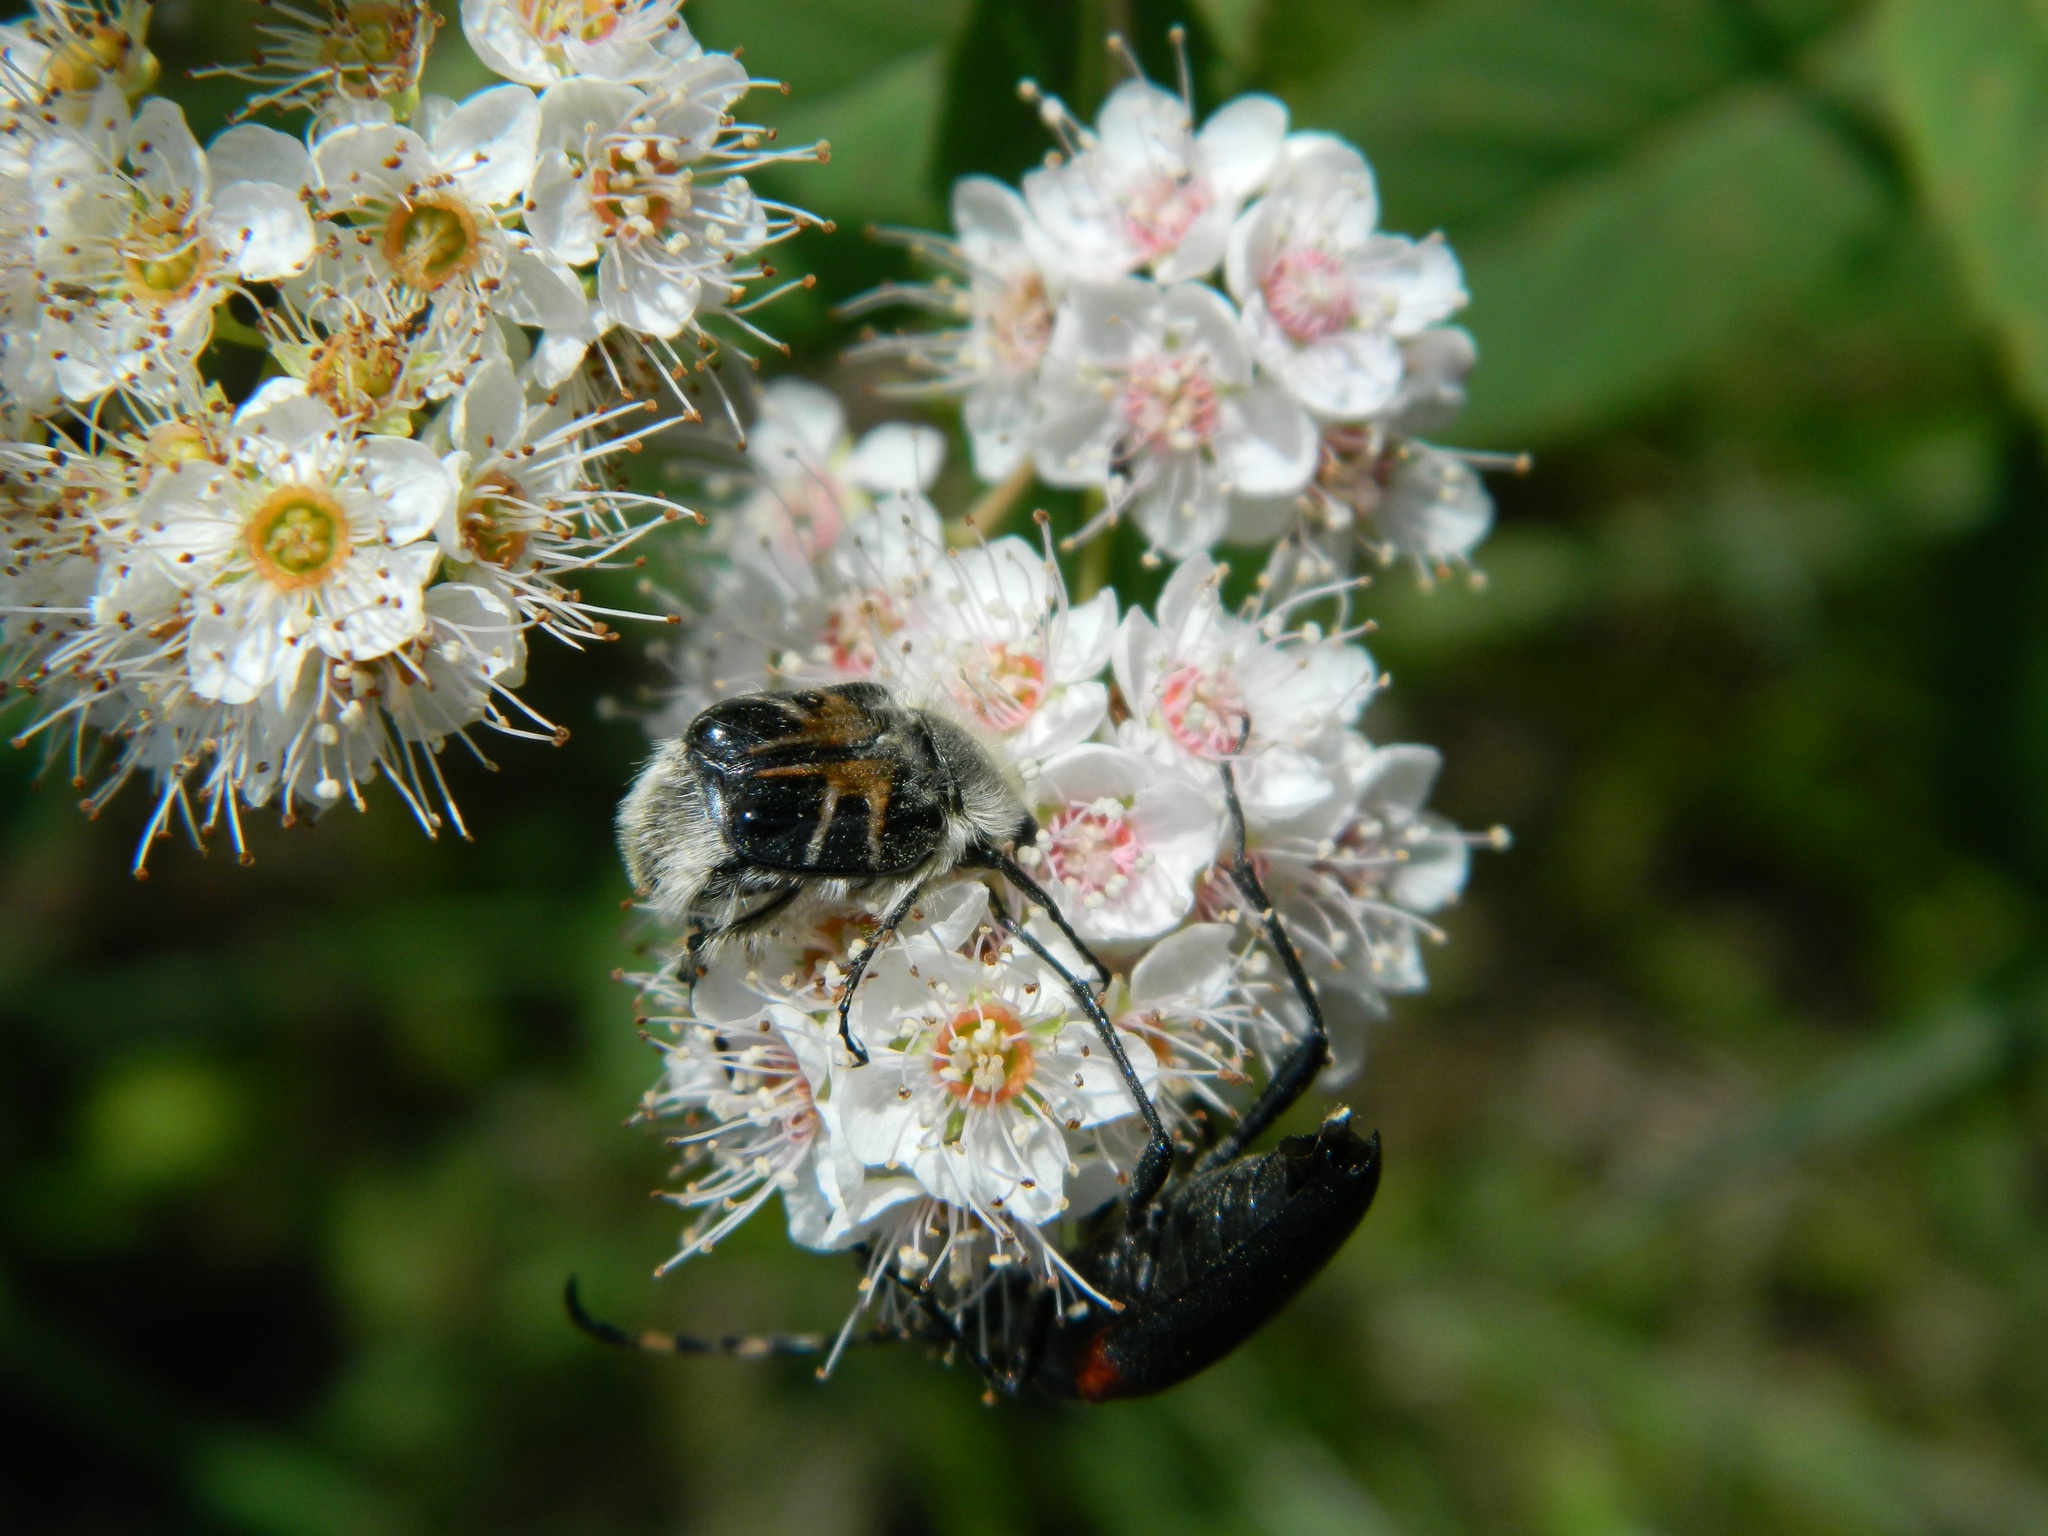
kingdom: Animalia
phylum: Arthropoda
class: Insecta
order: Coleoptera
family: Scarabaeidae
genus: Trichiotinus
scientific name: Trichiotinus assimilis
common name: Bee-mimic beetle
